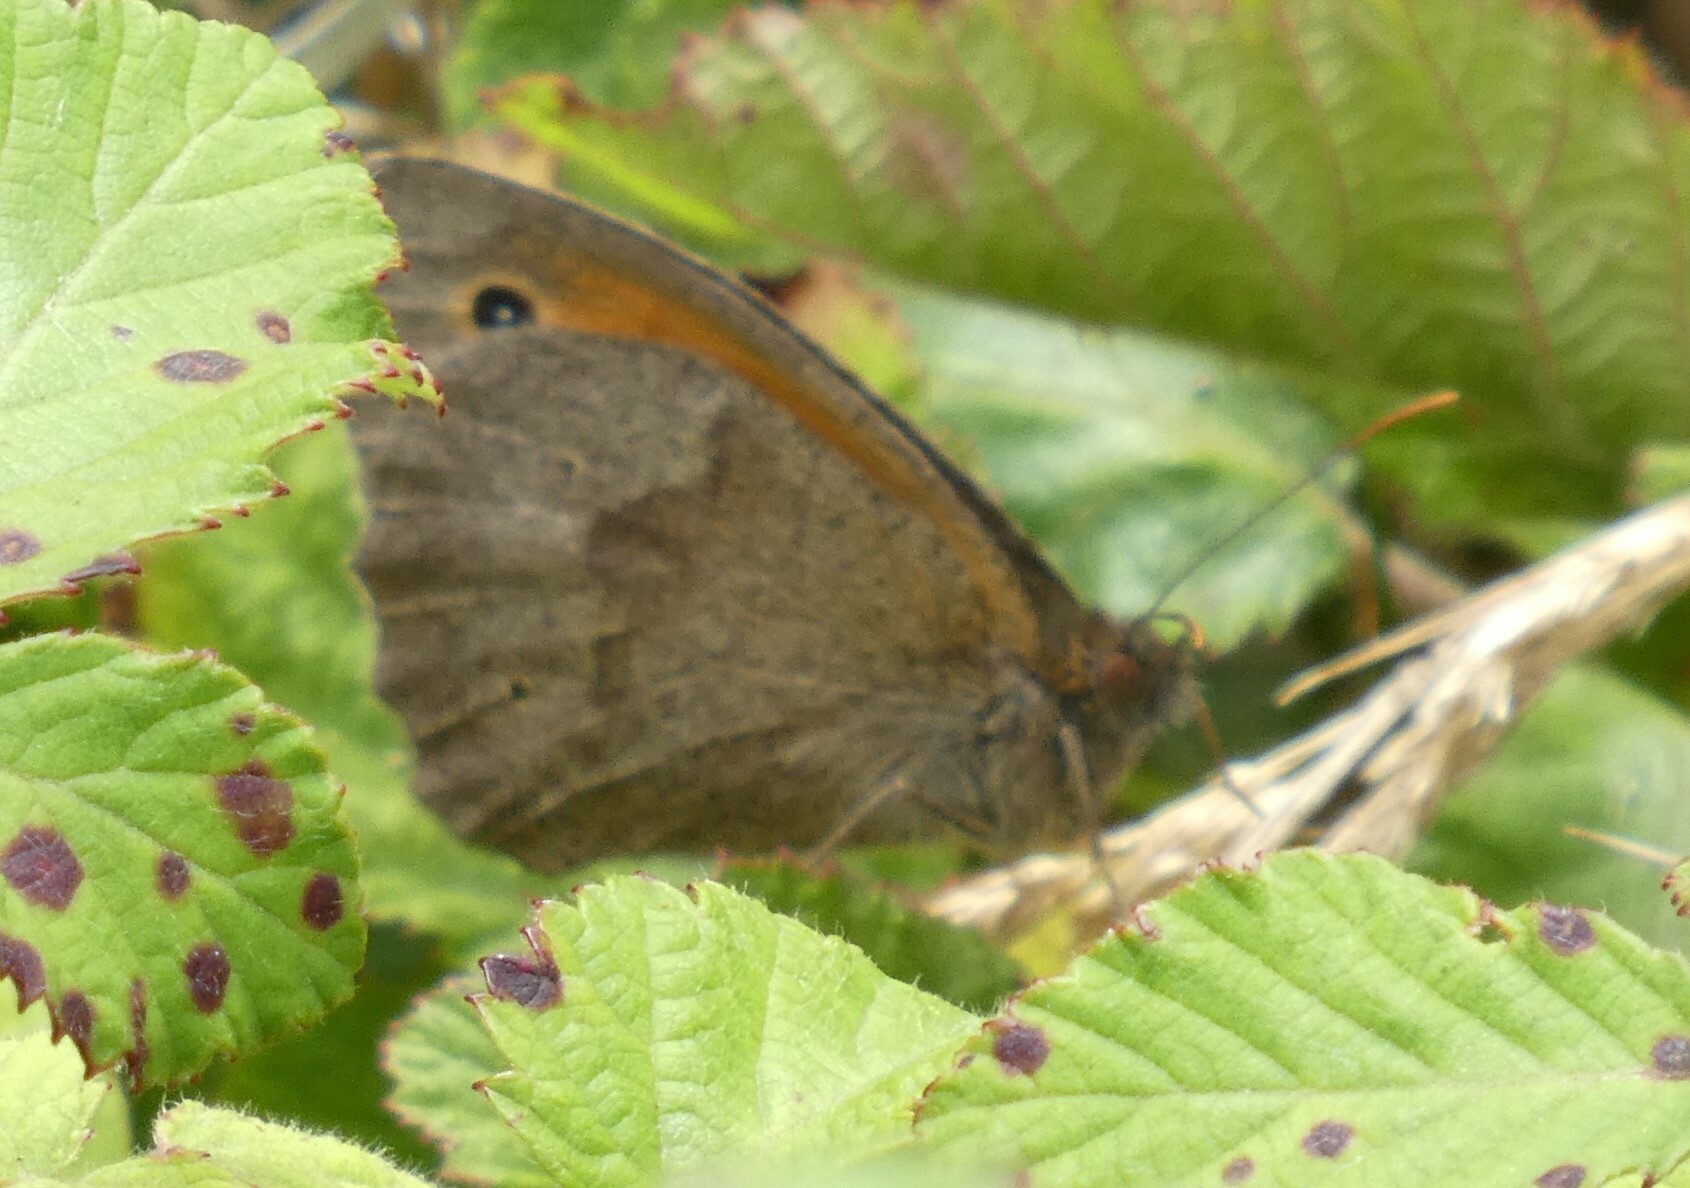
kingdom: Animalia
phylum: Arthropoda
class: Insecta
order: Lepidoptera
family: Nymphalidae
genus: Maniola
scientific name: Maniola jurtina
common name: Meadow brown
